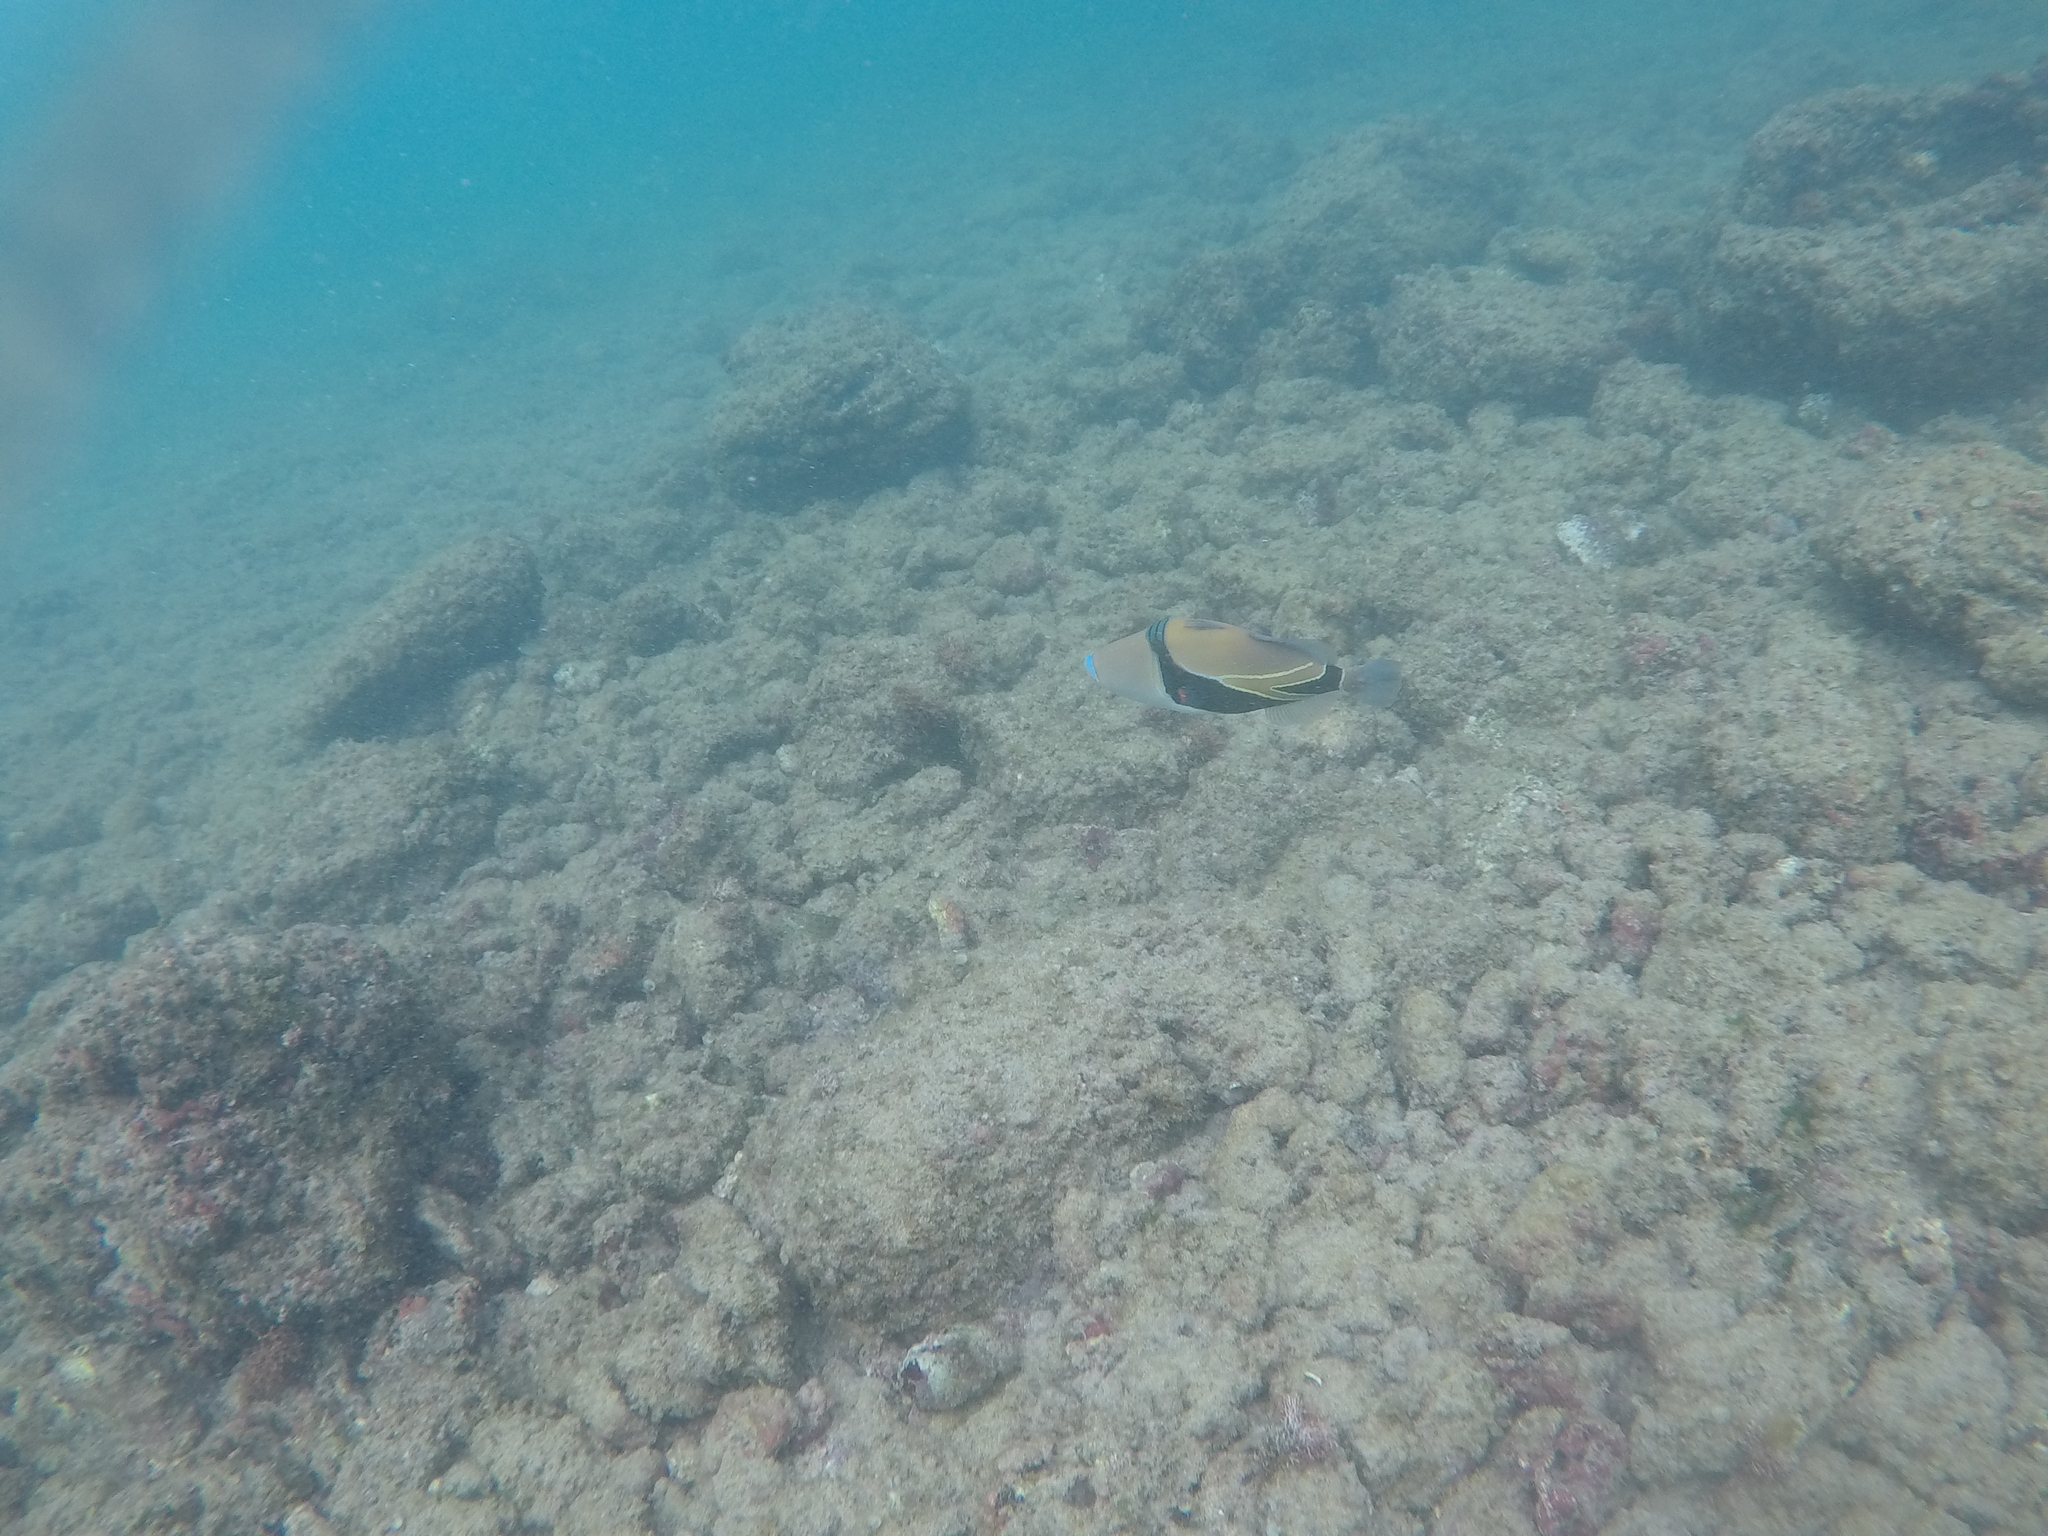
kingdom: Animalia
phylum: Chordata
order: Tetraodontiformes
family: Balistidae
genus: Rhinecanthus
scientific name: Rhinecanthus rectangulus
